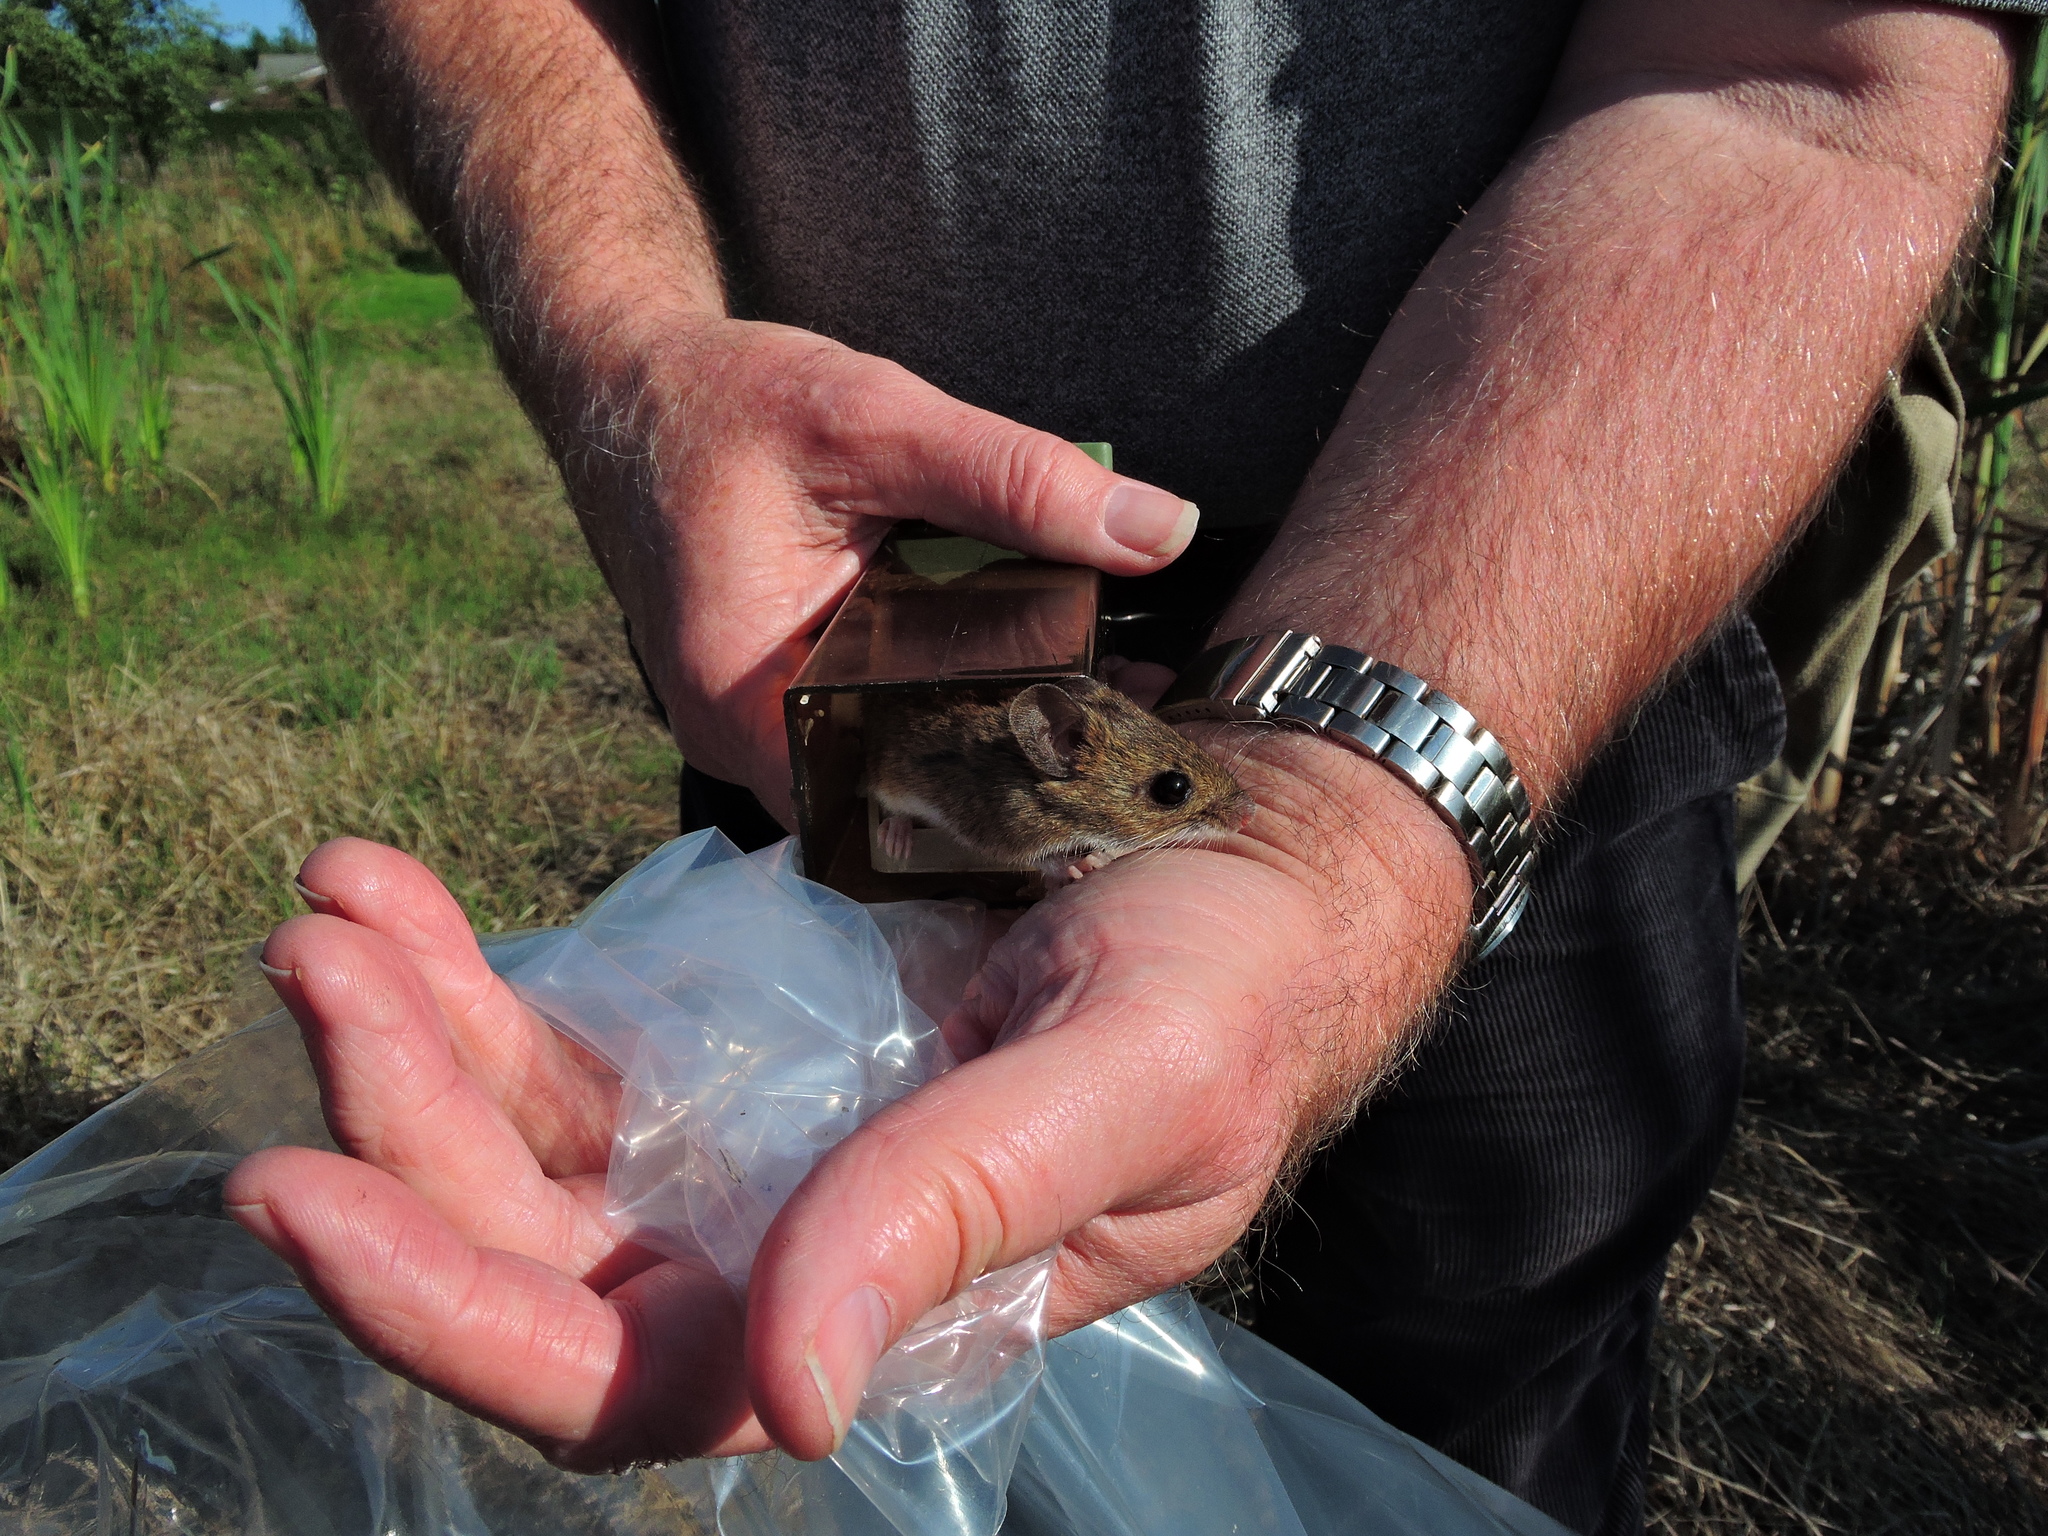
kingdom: Animalia
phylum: Chordata
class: Mammalia
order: Rodentia
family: Muridae
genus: Apodemus
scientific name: Apodemus sylvaticus
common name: Wood mouse
